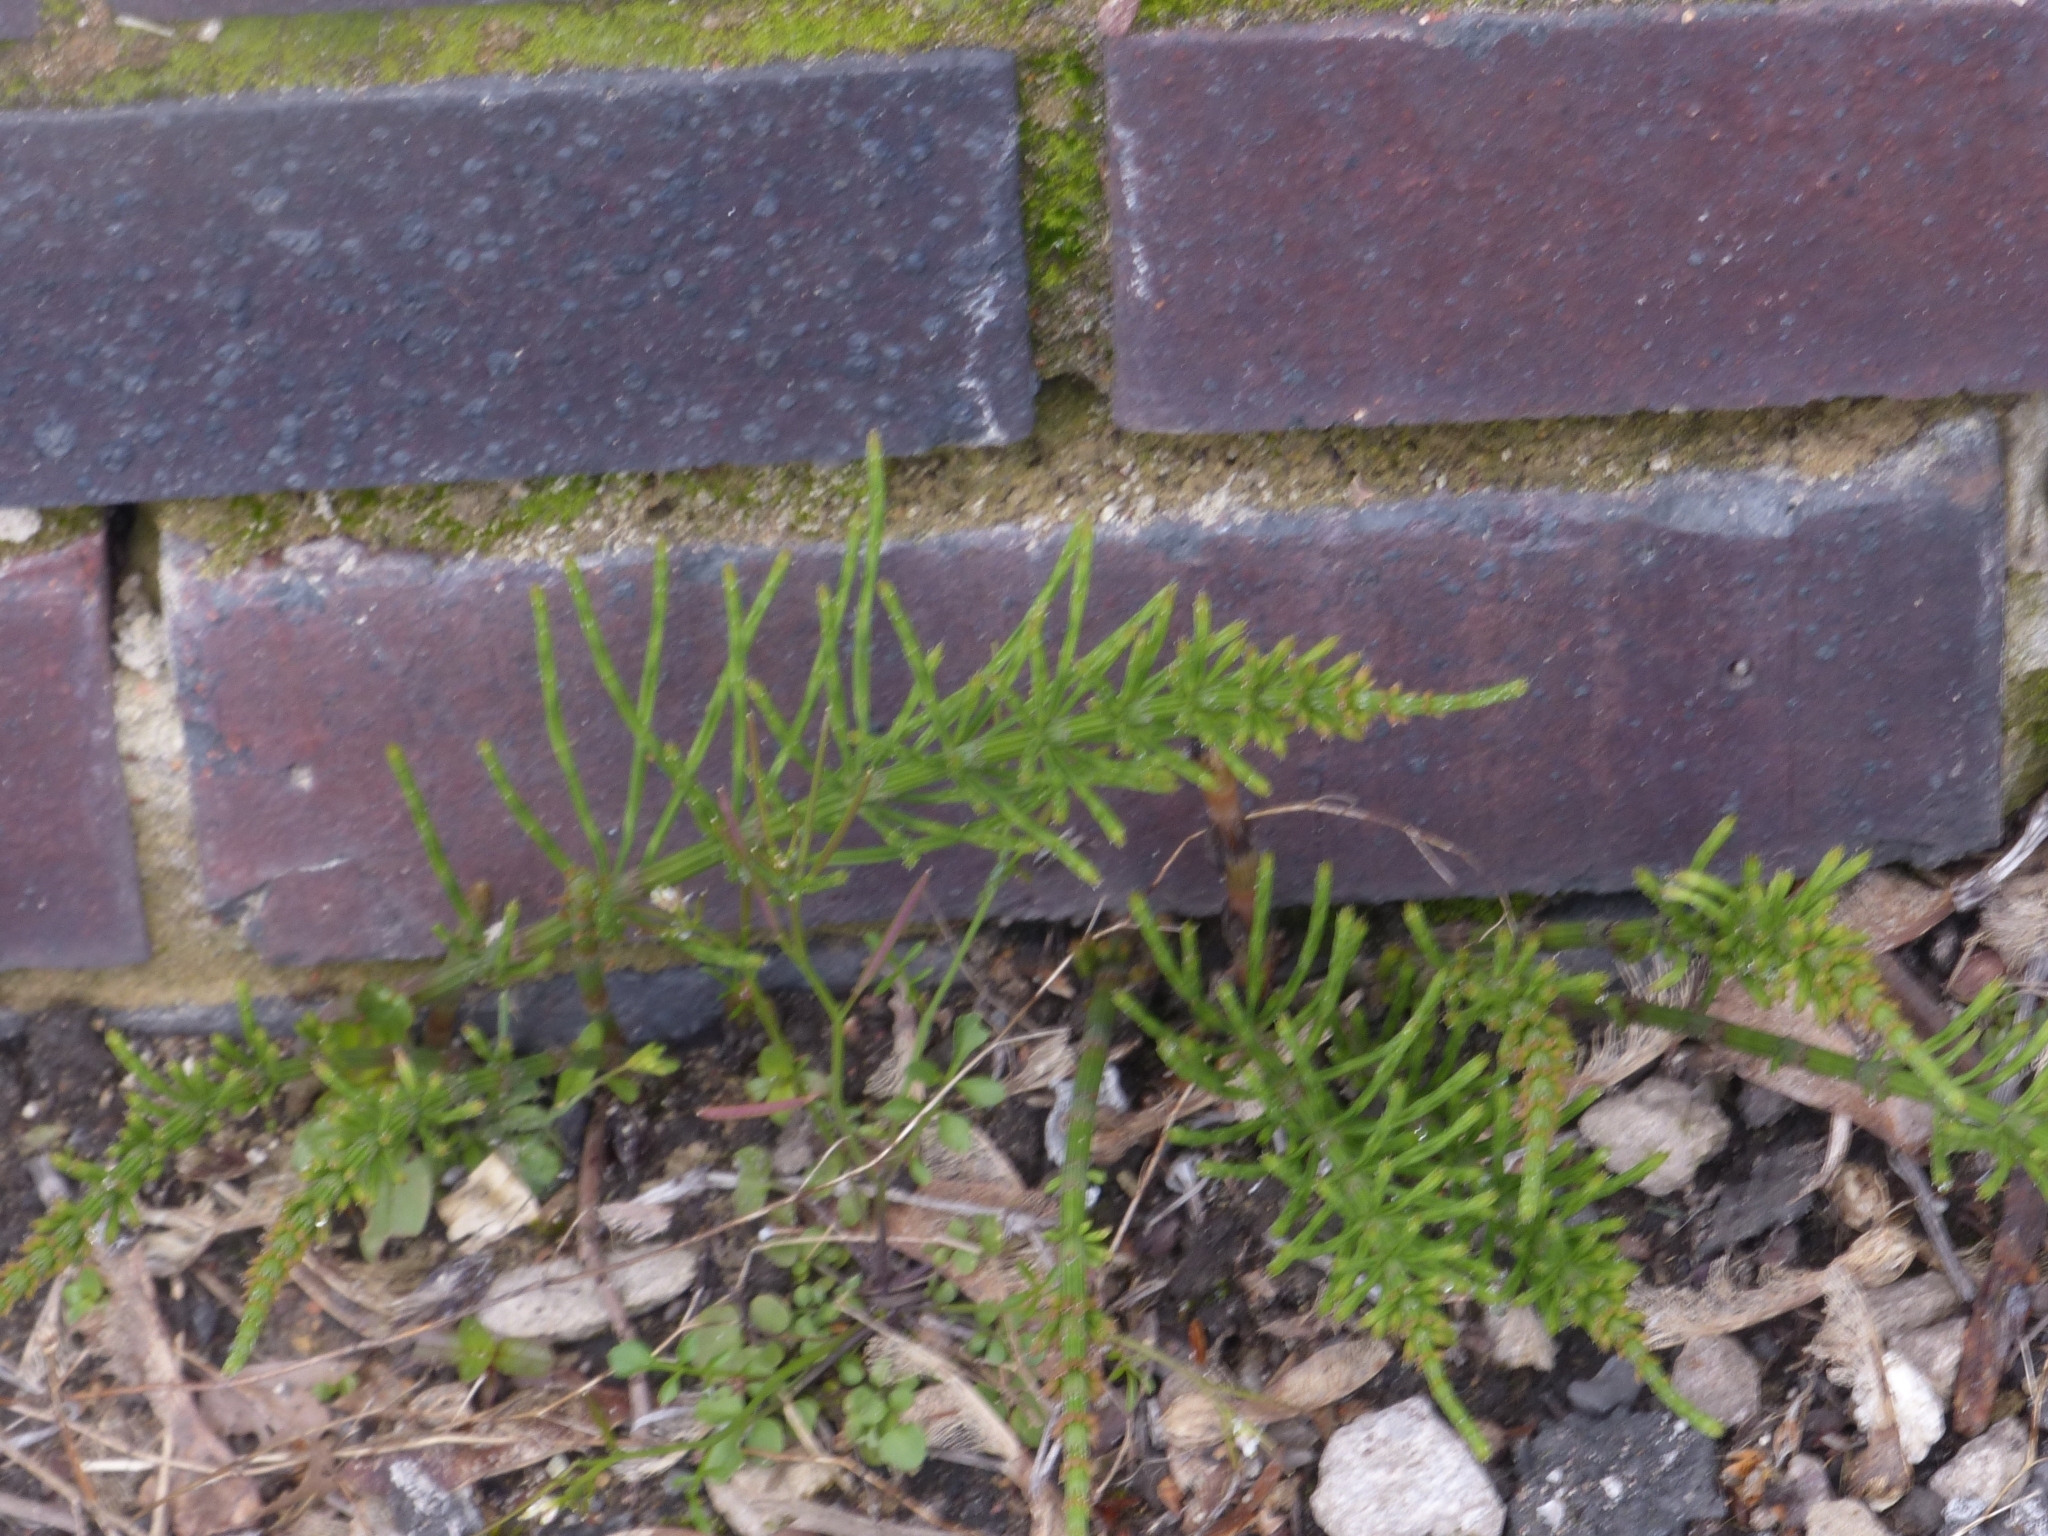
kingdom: Plantae
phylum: Tracheophyta
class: Polypodiopsida
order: Equisetales
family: Equisetaceae
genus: Equisetum
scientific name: Equisetum arvense
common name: Field horsetail
